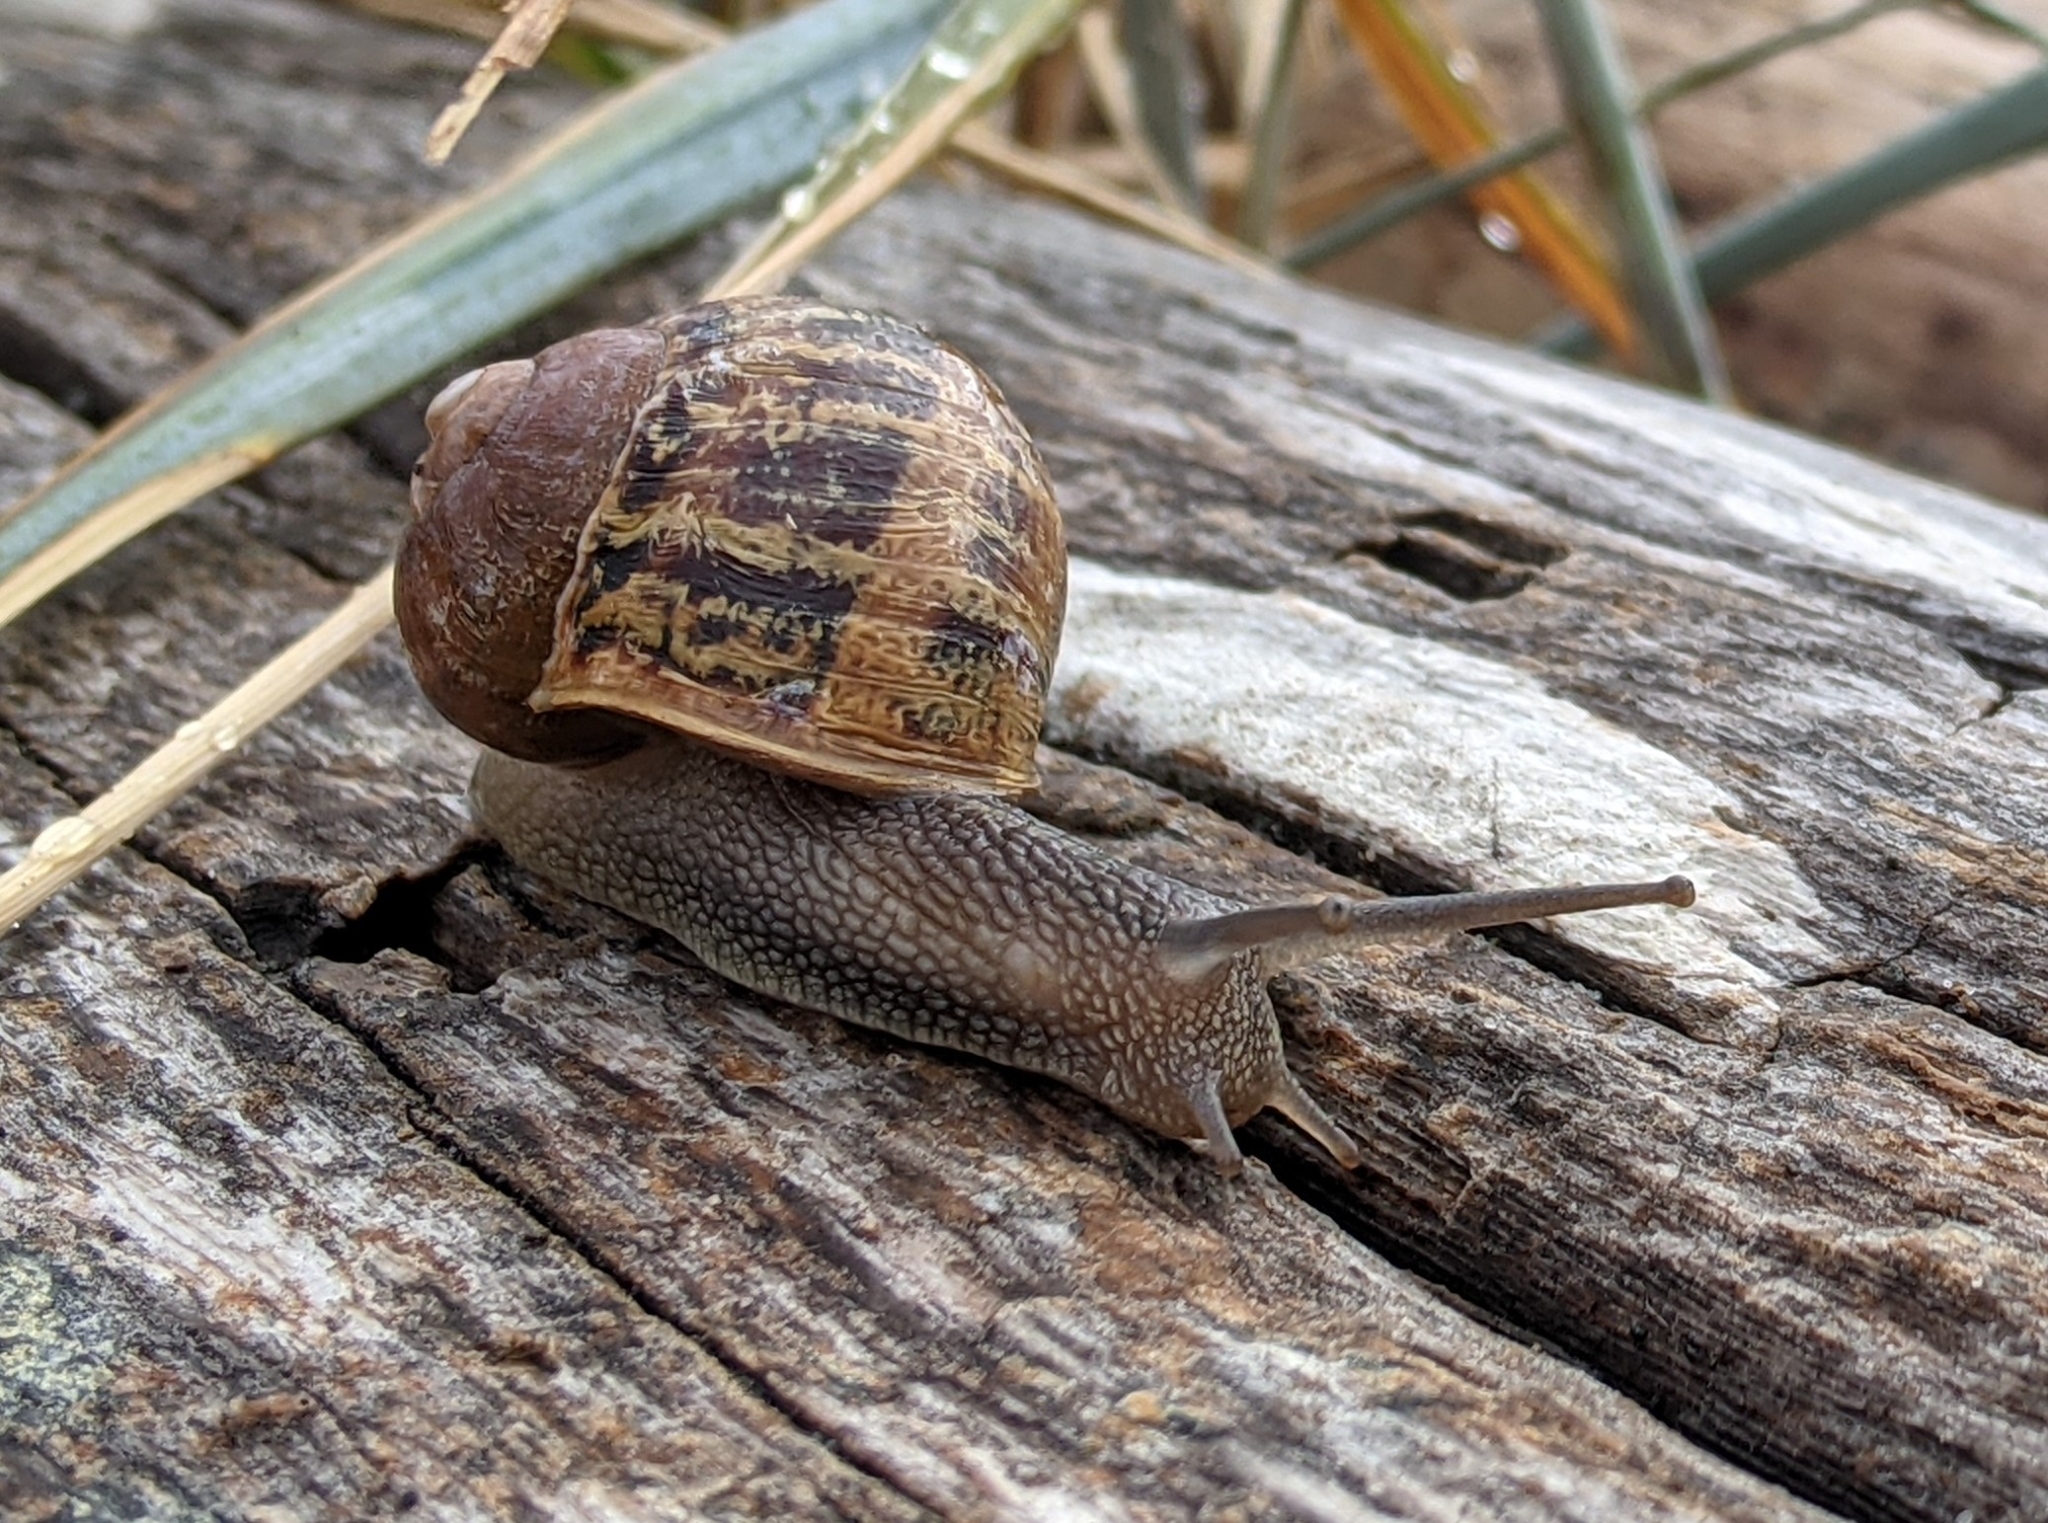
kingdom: Animalia
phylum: Mollusca
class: Gastropoda
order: Stylommatophora
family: Helicidae
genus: Cornu
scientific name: Cornu aspersum
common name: Brown garden snail
